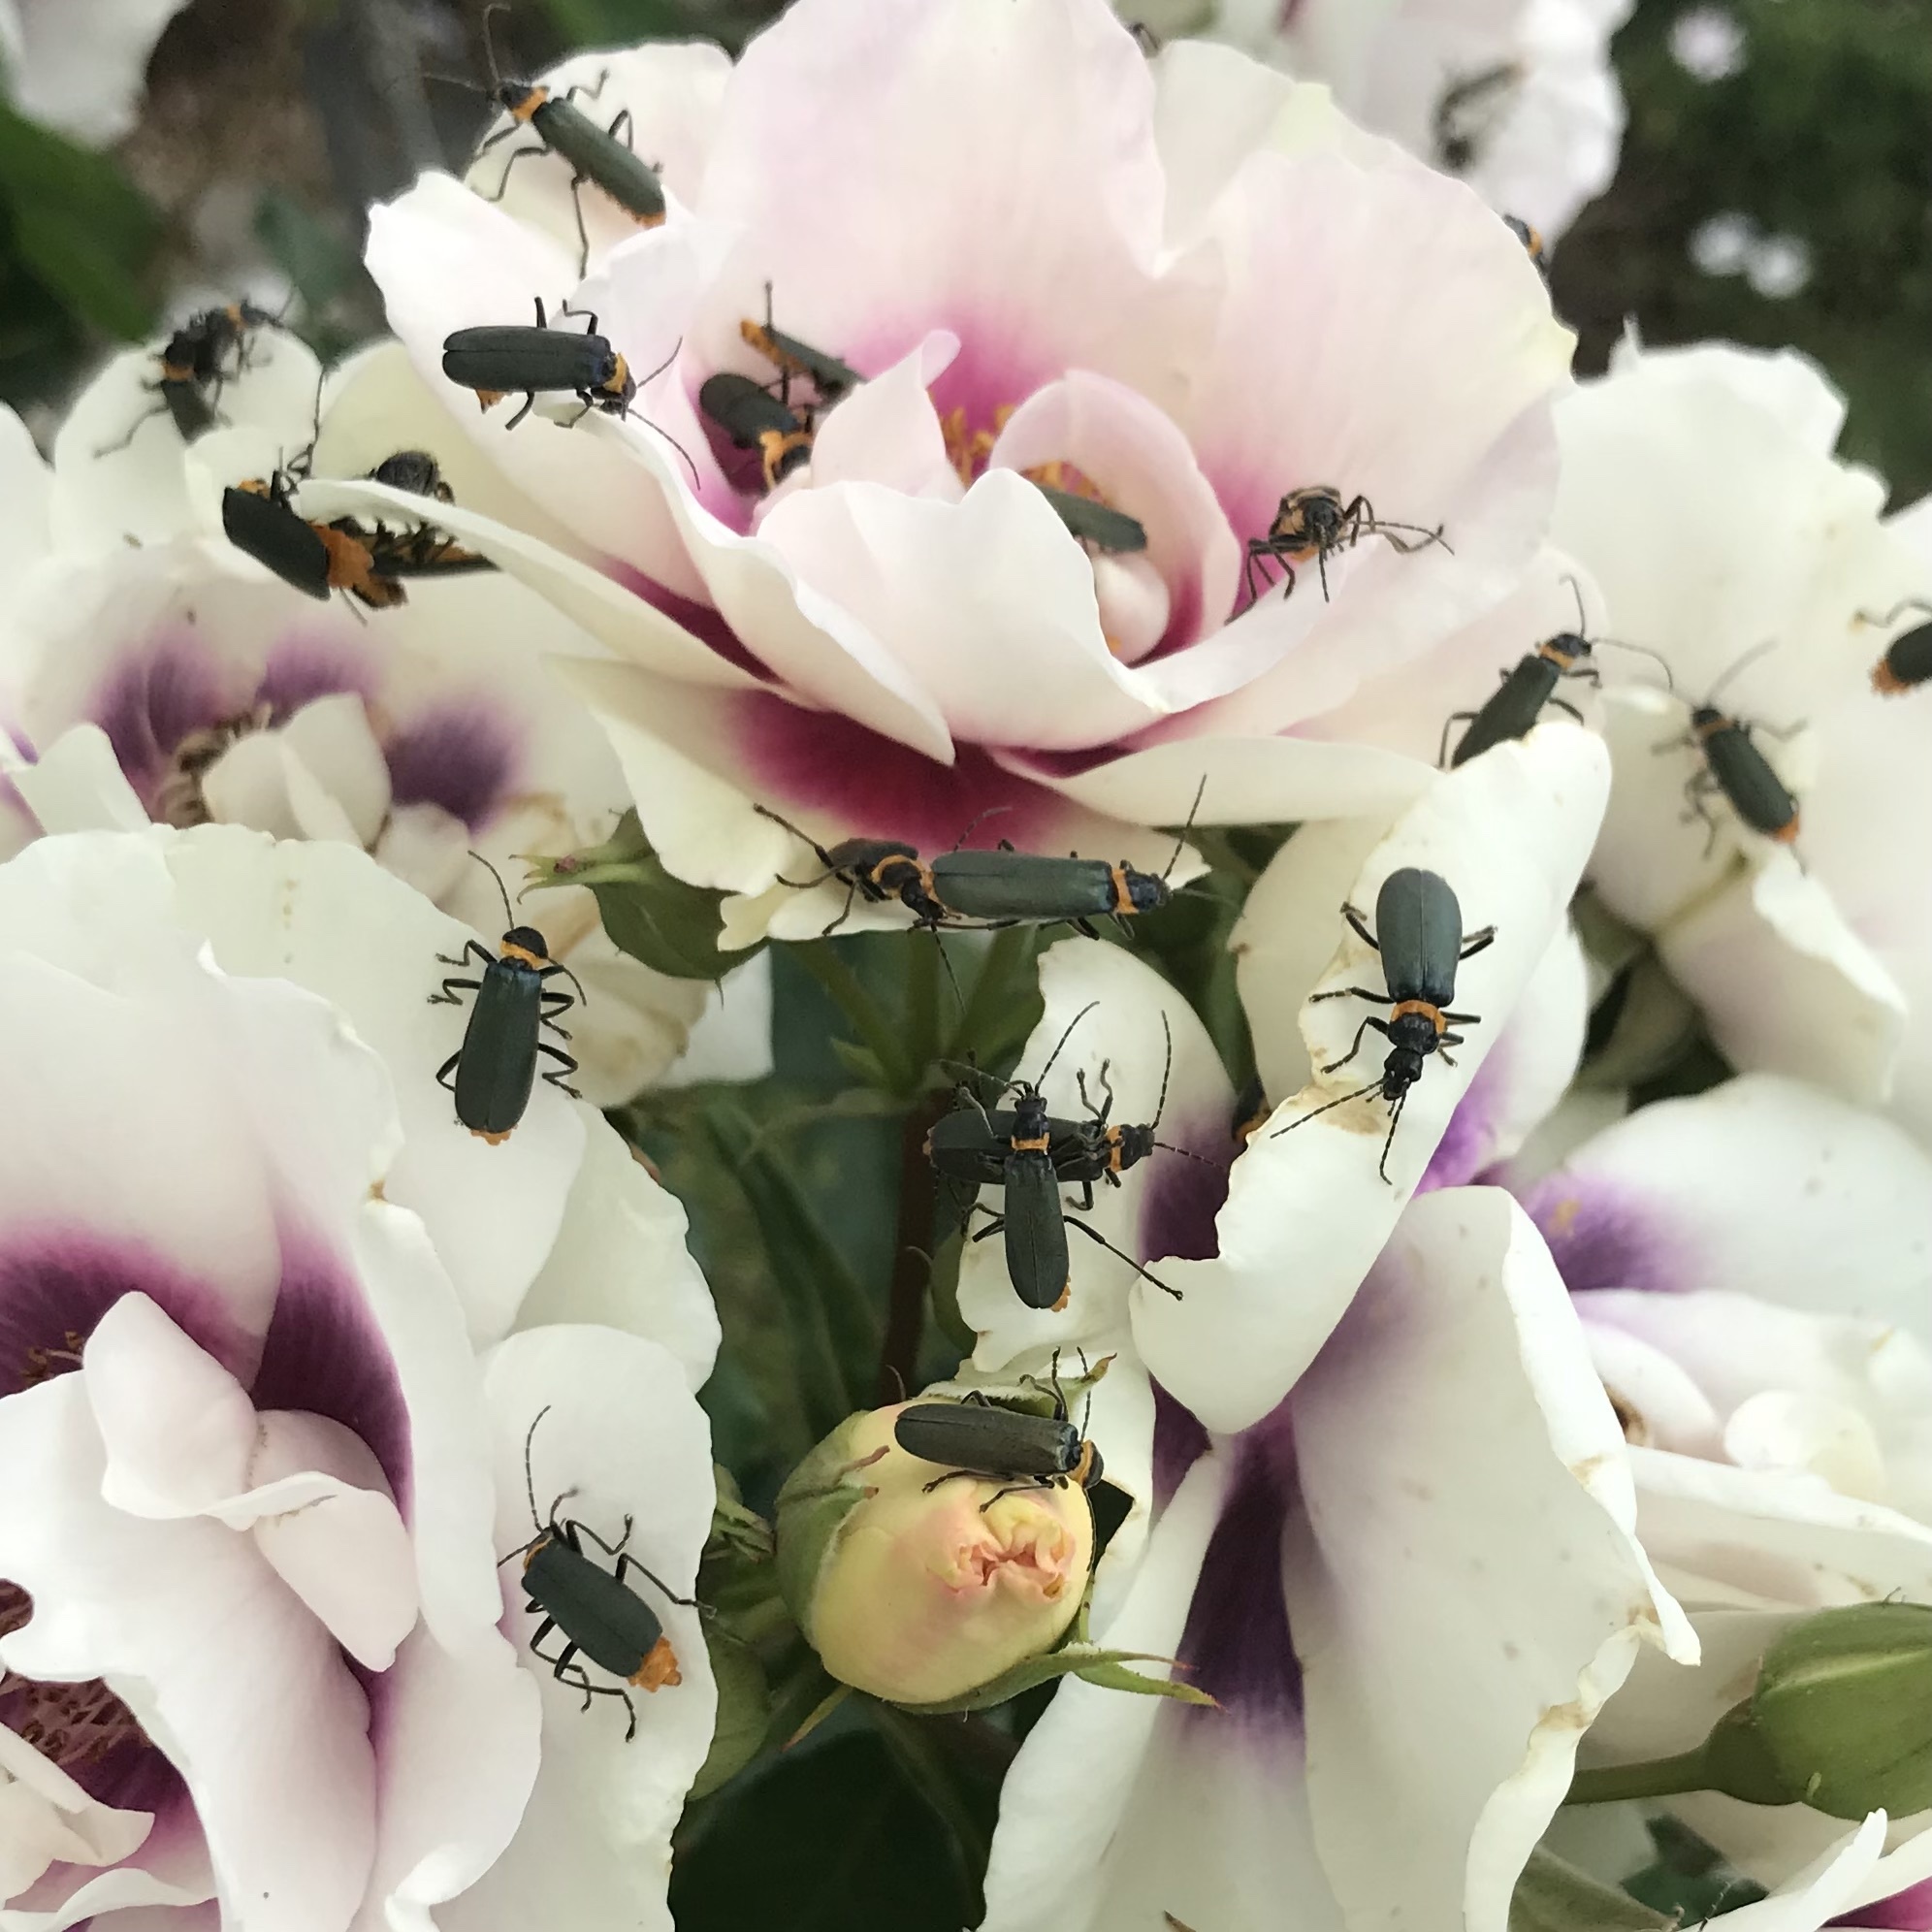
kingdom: Animalia
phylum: Arthropoda
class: Insecta
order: Coleoptera
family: Cantharidae
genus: Chauliognathus
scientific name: Chauliognathus
